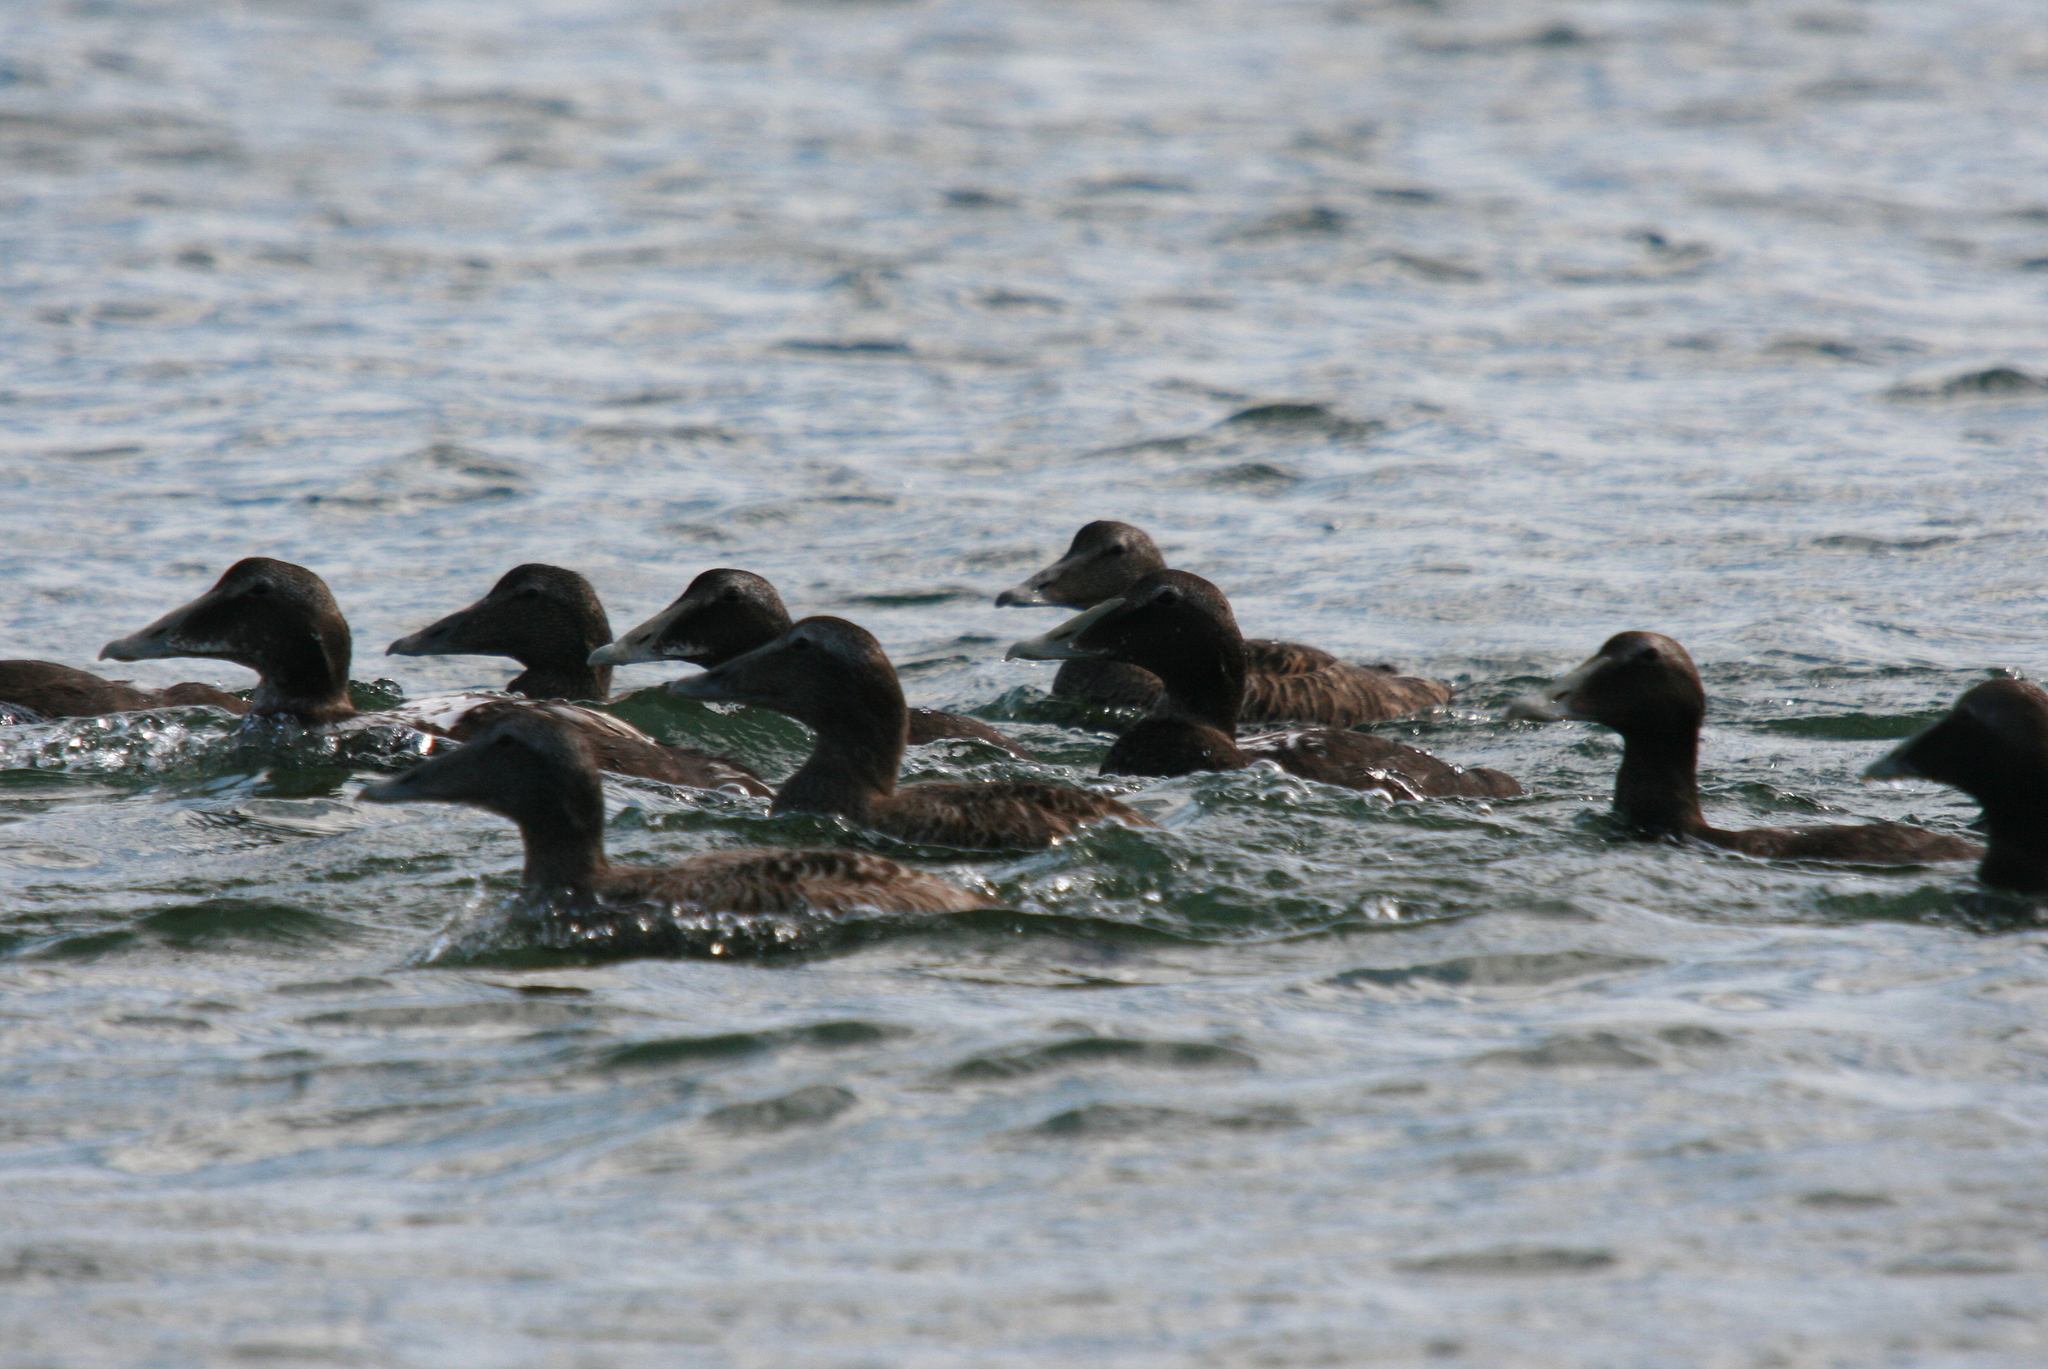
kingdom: Animalia
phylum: Chordata
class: Aves
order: Anseriformes
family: Anatidae
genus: Somateria
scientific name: Somateria mollissima
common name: Common eider
